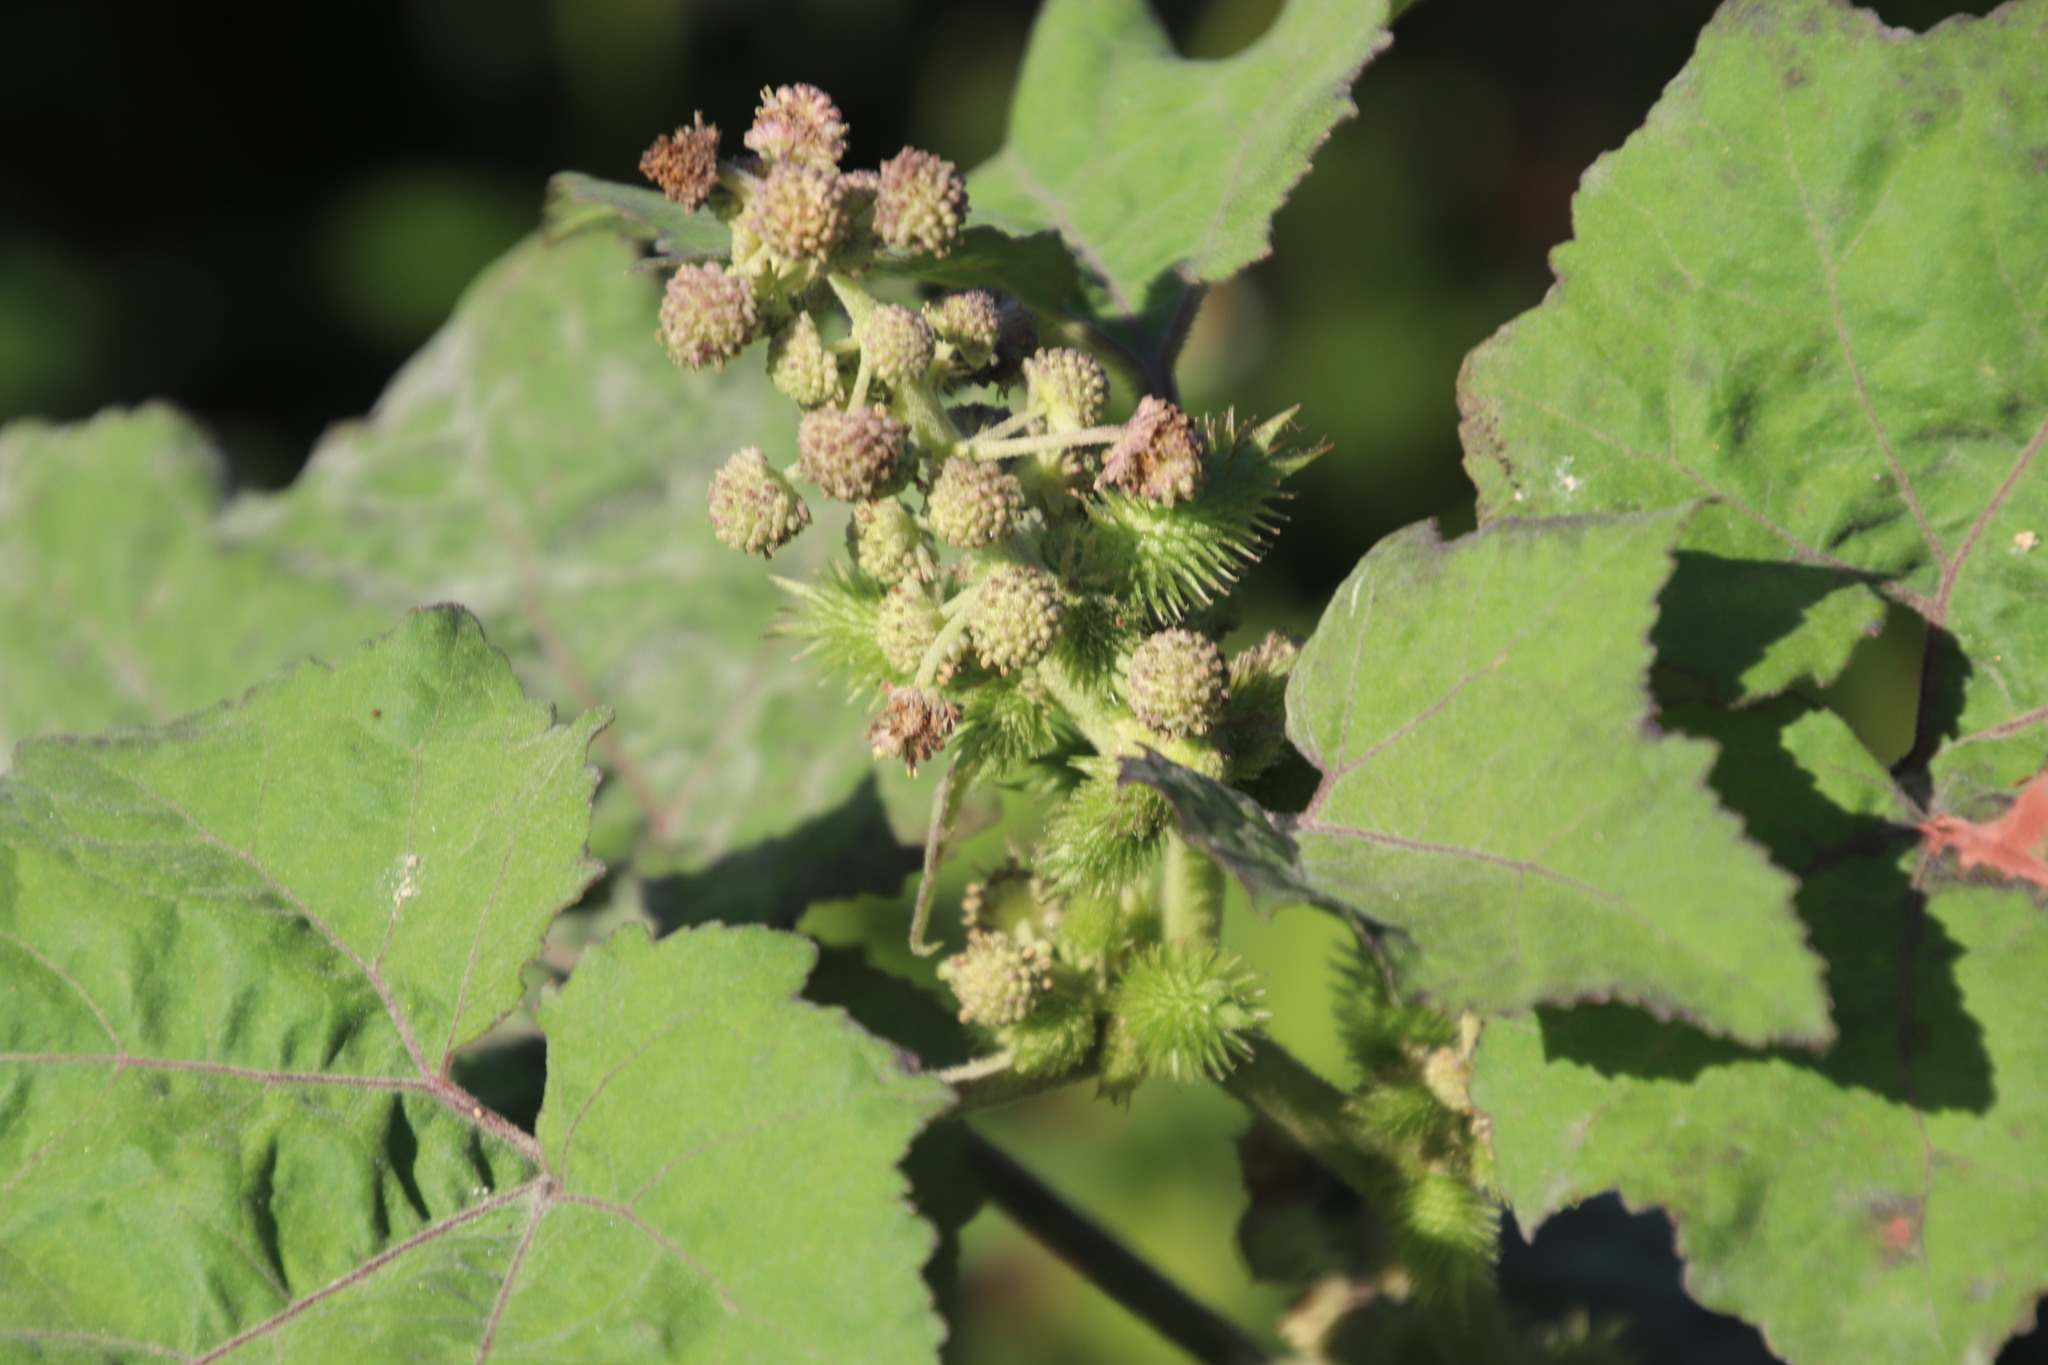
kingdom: Plantae
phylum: Tracheophyta
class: Magnoliopsida
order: Asterales
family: Asteraceae
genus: Xanthium
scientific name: Xanthium strumarium
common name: Rough cocklebur
